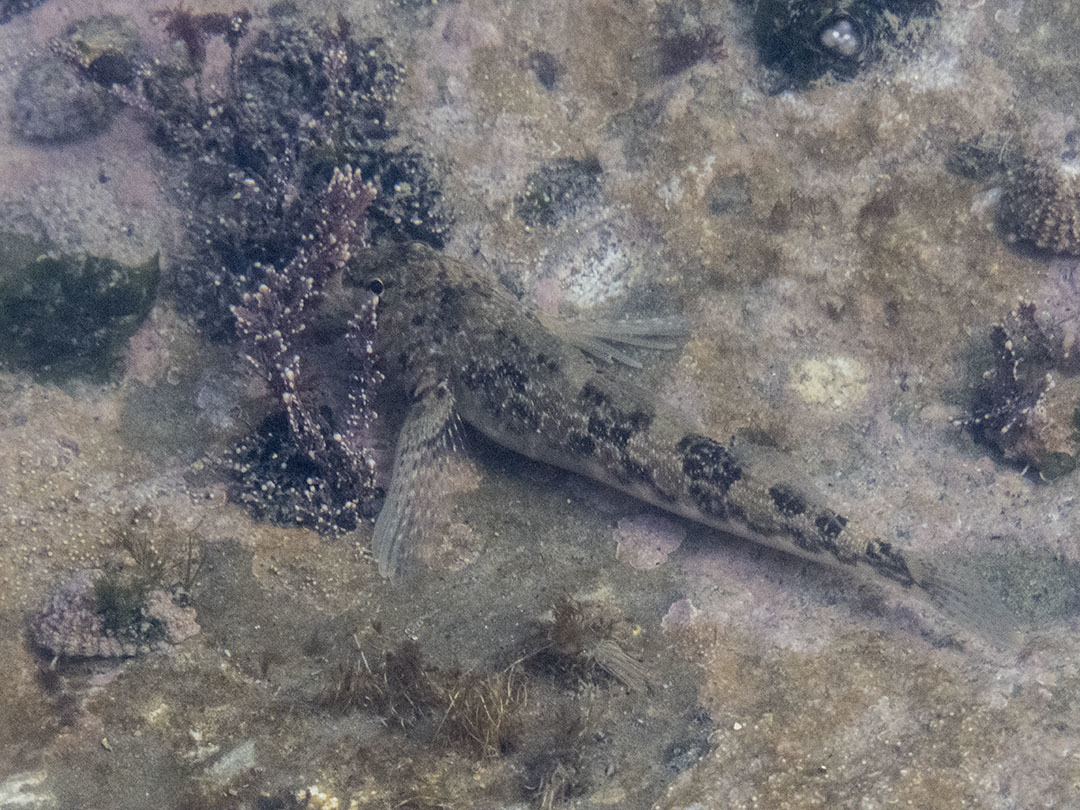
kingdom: Animalia
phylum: Chordata
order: Perciformes
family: Tripterygiidae
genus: Bellapiscis
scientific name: Bellapiscis medius
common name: Twister
